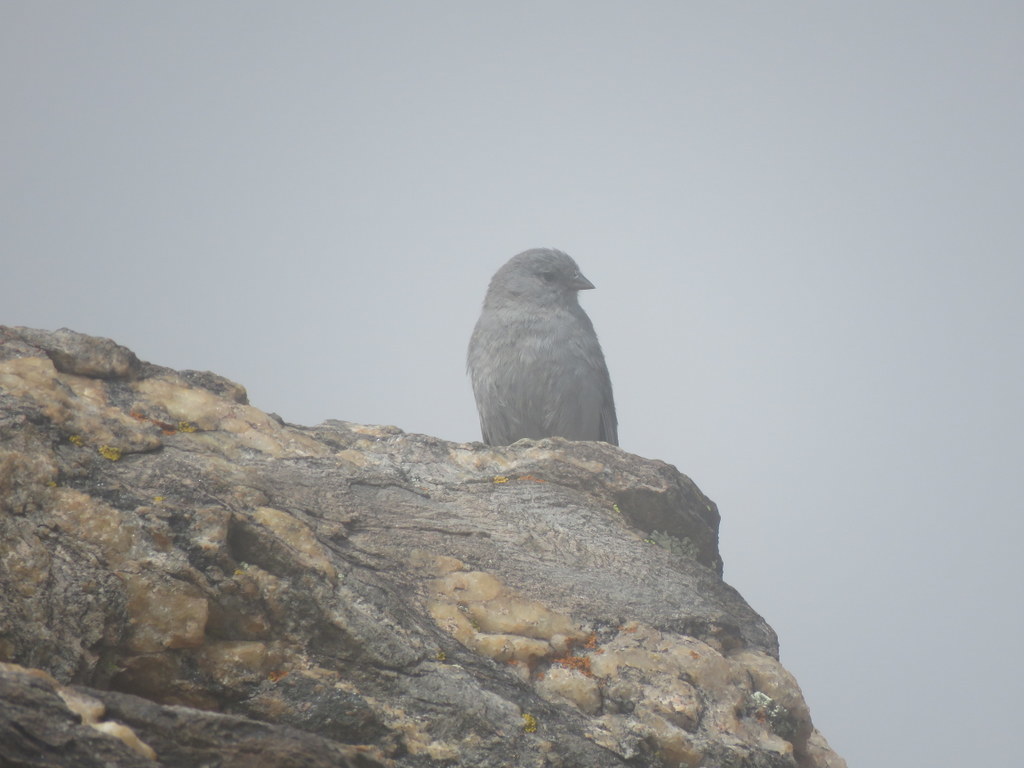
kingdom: Animalia
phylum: Chordata
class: Aves
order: Passeriformes
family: Thraupidae
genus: Geospizopsis
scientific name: Geospizopsis unicolor
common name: Plumbeous sierra-finch
